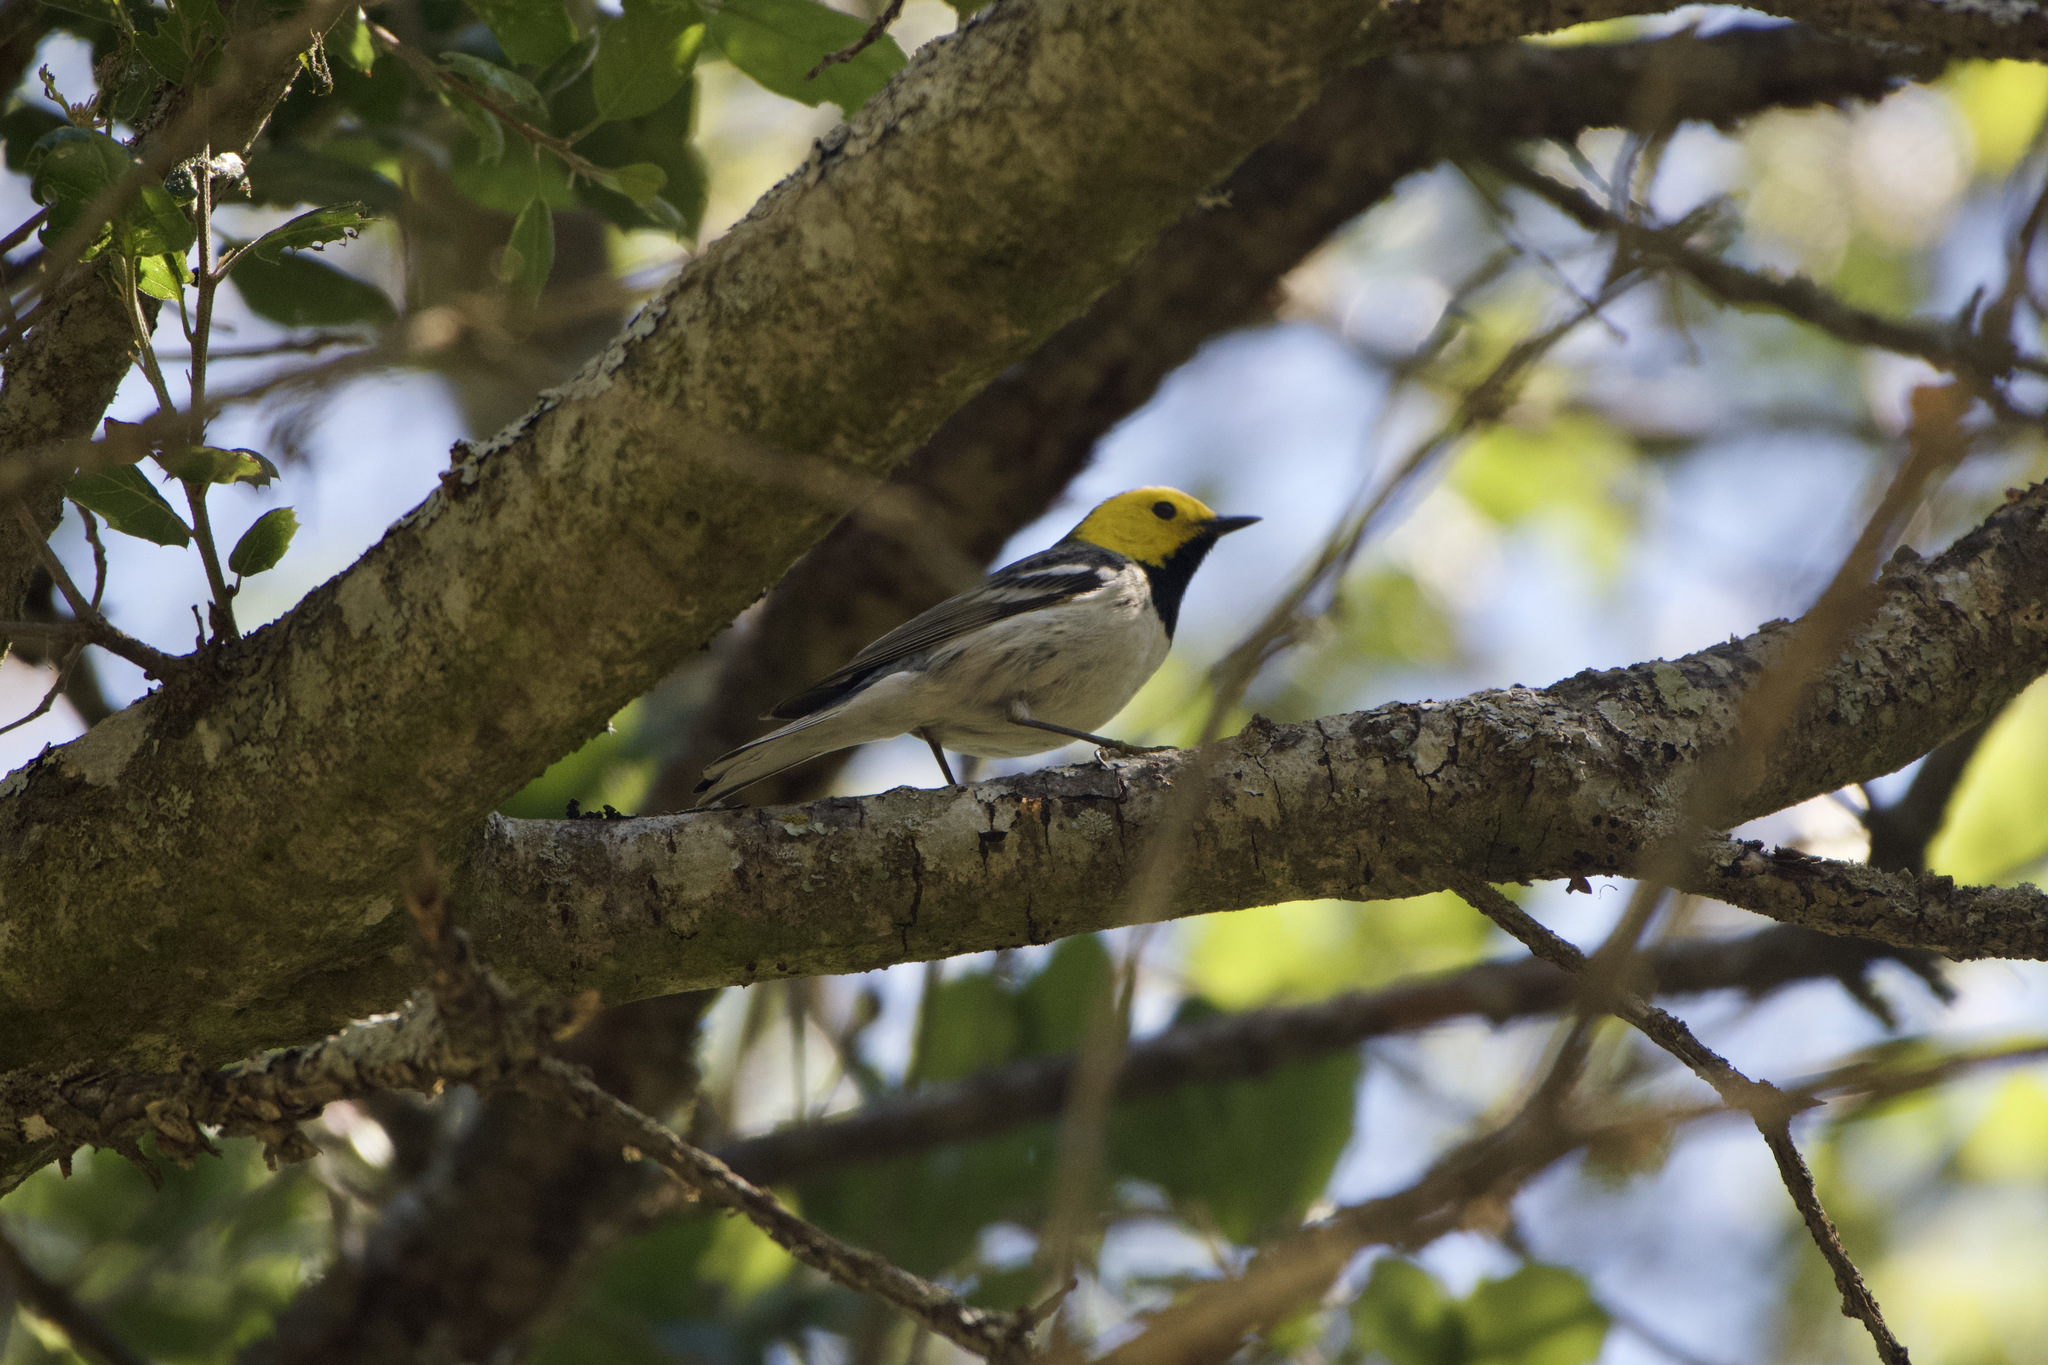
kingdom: Animalia
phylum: Chordata
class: Aves
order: Passeriformes
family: Parulidae
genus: Setophaga
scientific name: Setophaga occidentalis
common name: Hermit warbler
